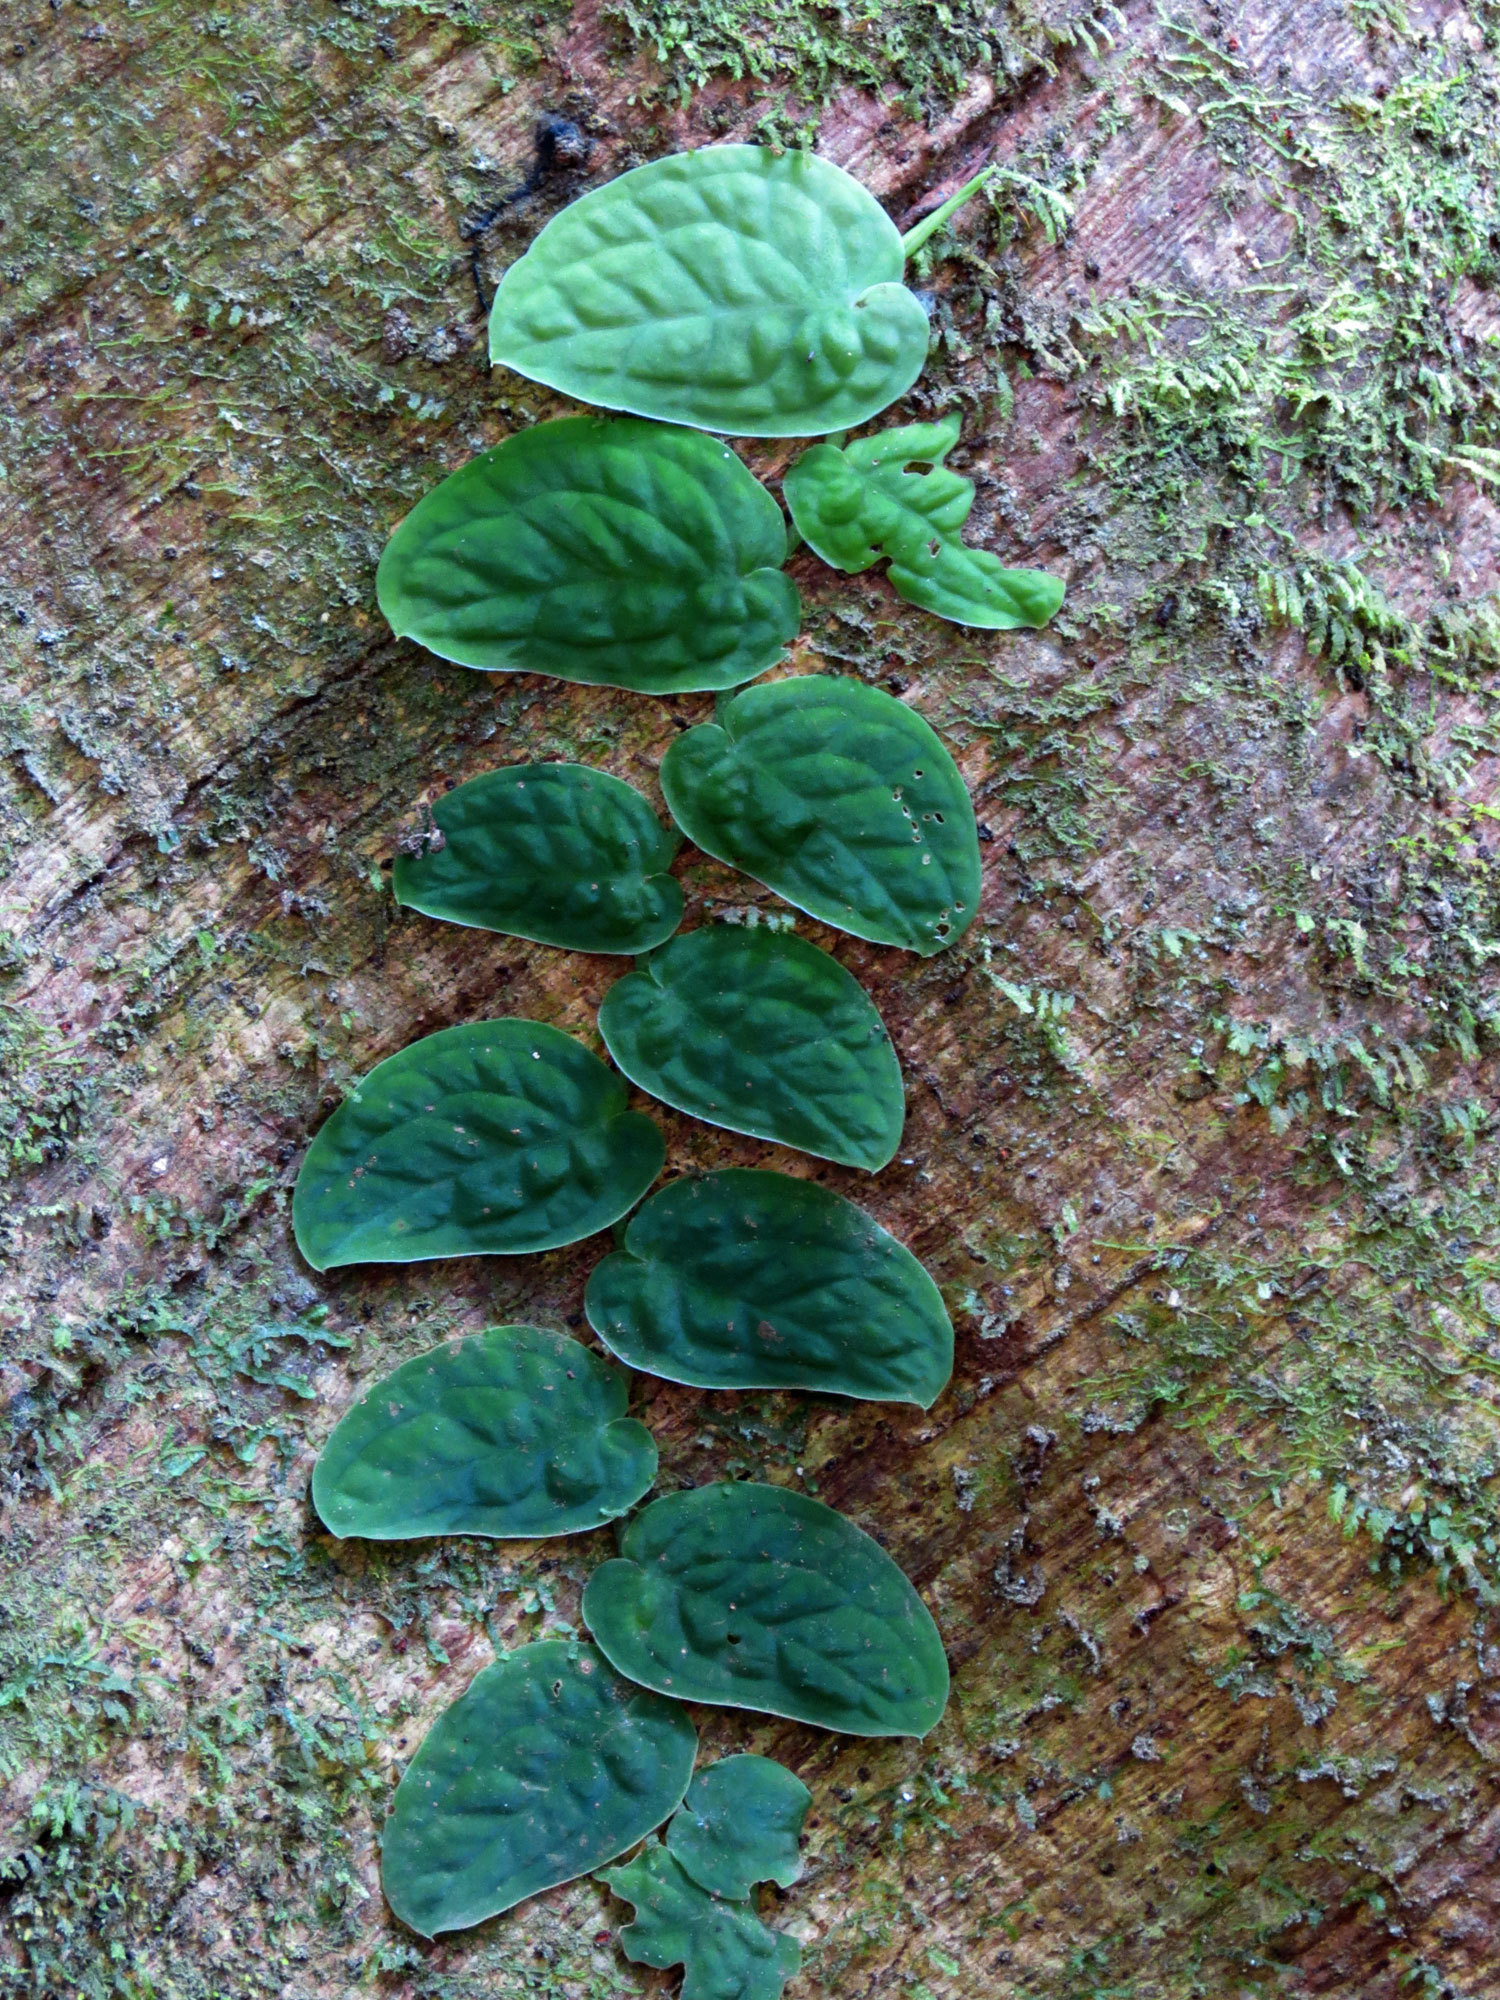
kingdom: Plantae
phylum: Tracheophyta
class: Liliopsida
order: Alismatales
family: Araceae
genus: Monstera
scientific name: Monstera dubia
